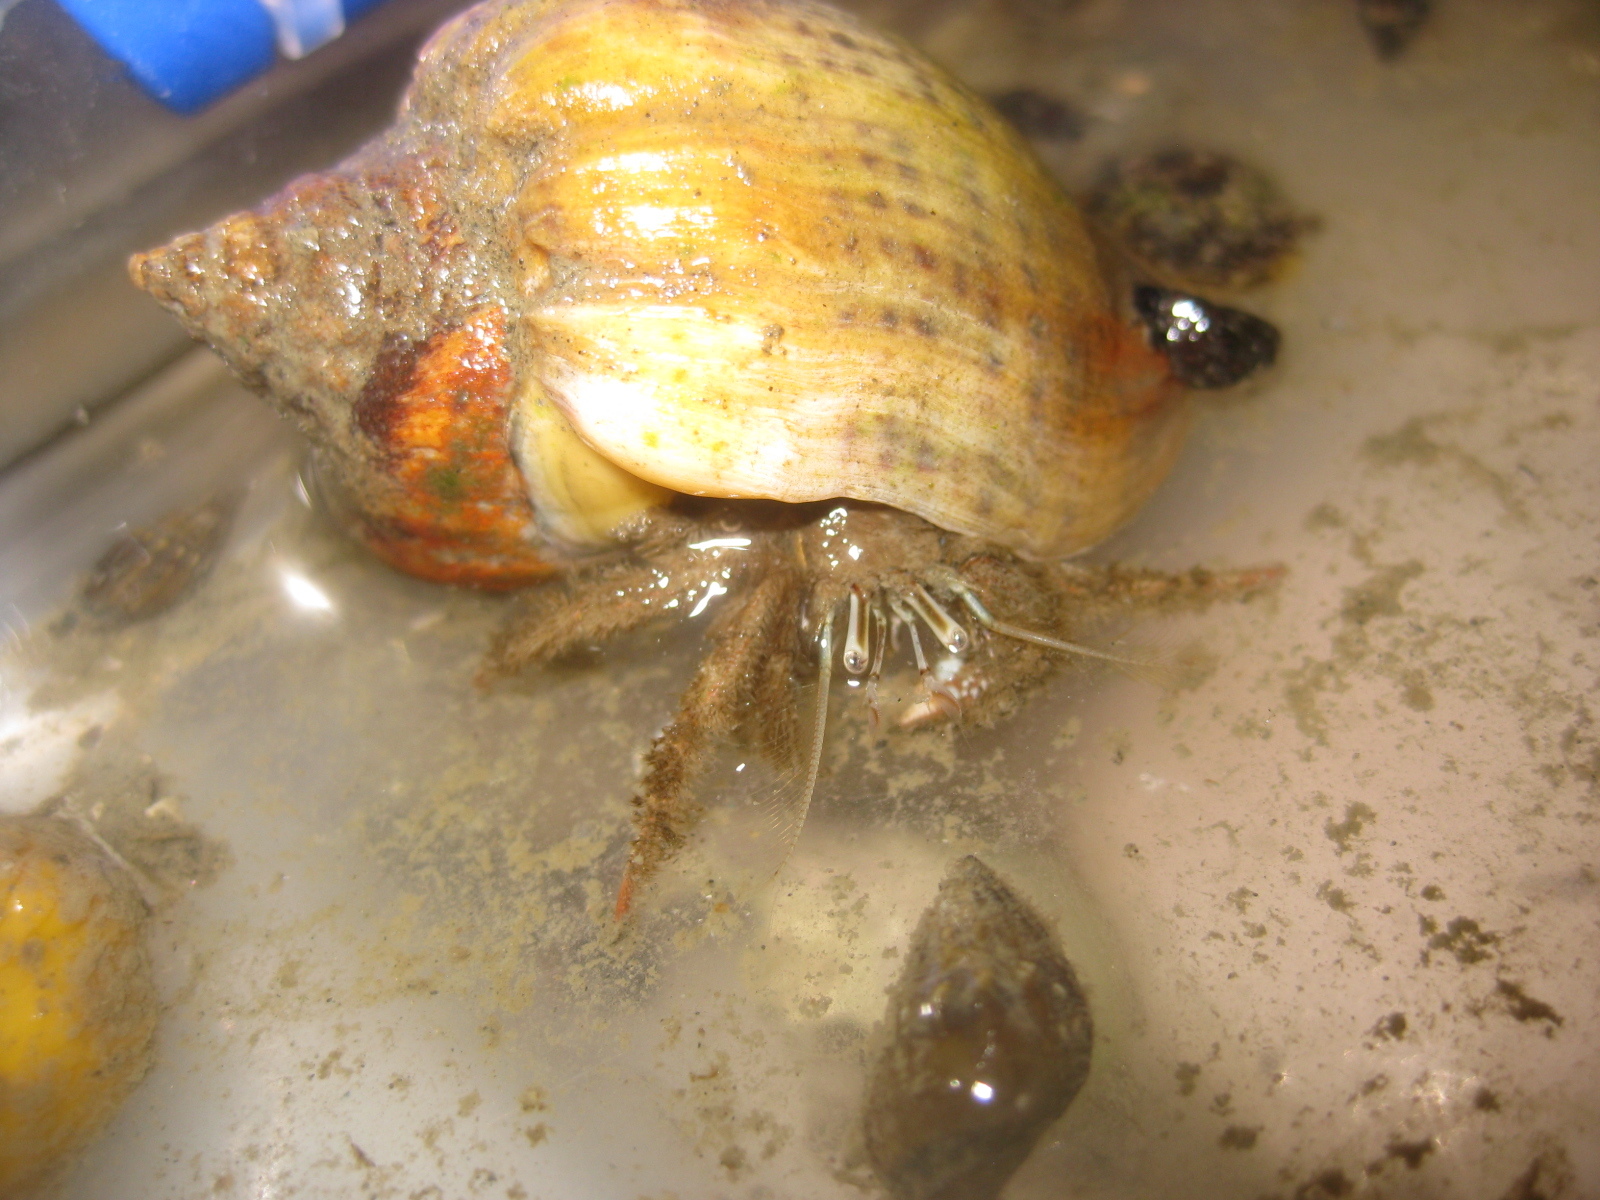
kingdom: Animalia
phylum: Arthropoda
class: Malacostraca
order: Decapoda
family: Diogenidae
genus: Areopaguristes
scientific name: Areopaguristes setosus
